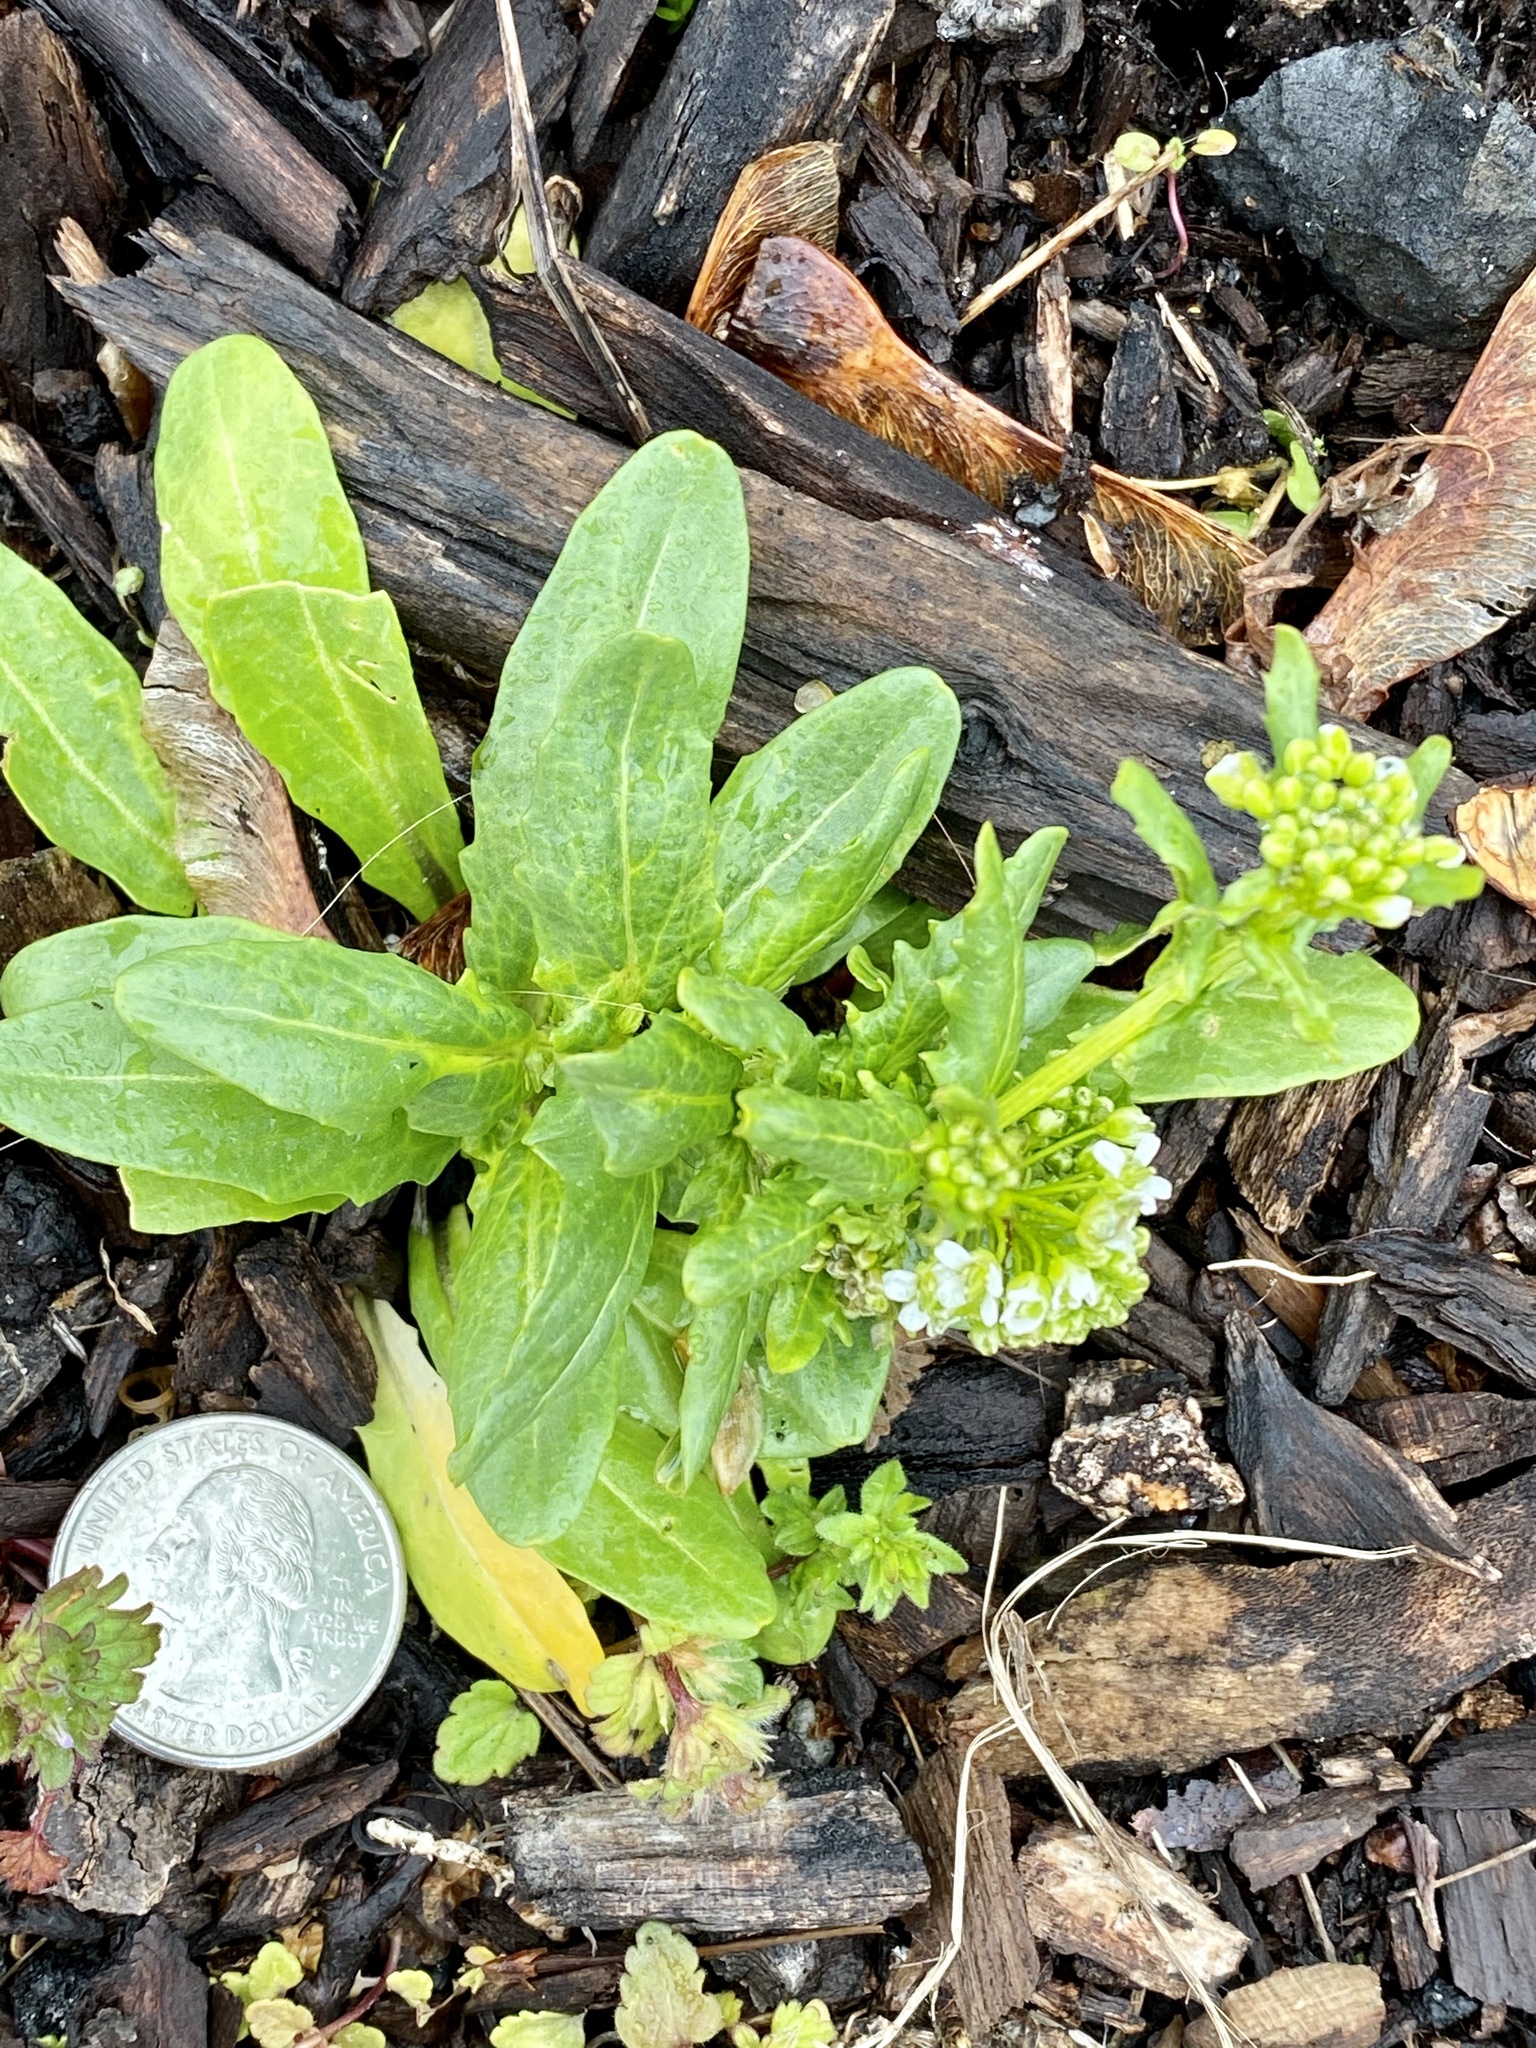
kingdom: Plantae
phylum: Tracheophyta
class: Magnoliopsida
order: Brassicales
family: Brassicaceae
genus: Thlaspi
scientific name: Thlaspi arvense
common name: Field pennycress
